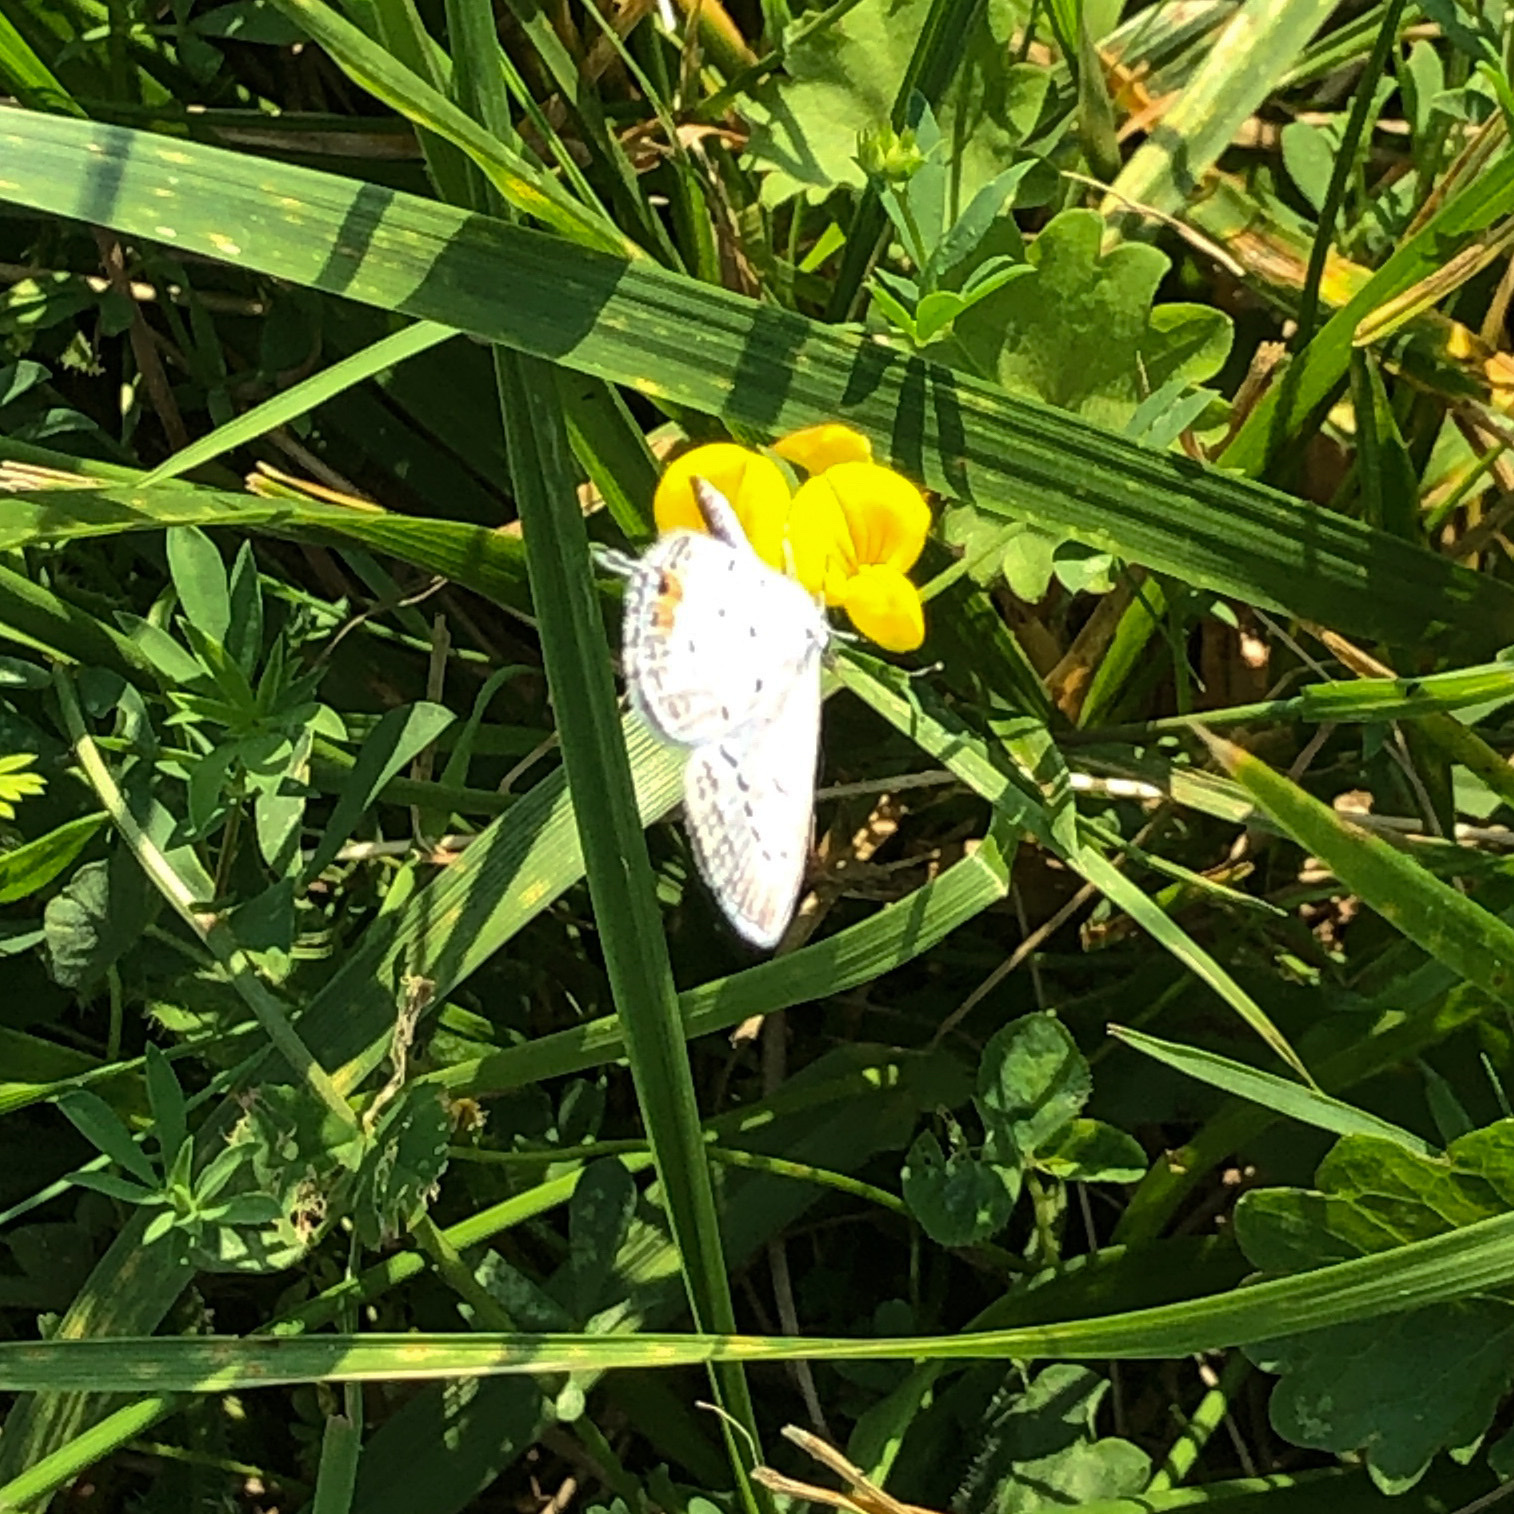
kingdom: Animalia
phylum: Arthropoda
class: Insecta
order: Lepidoptera
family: Lycaenidae
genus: Elkalyce
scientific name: Elkalyce comyntas
